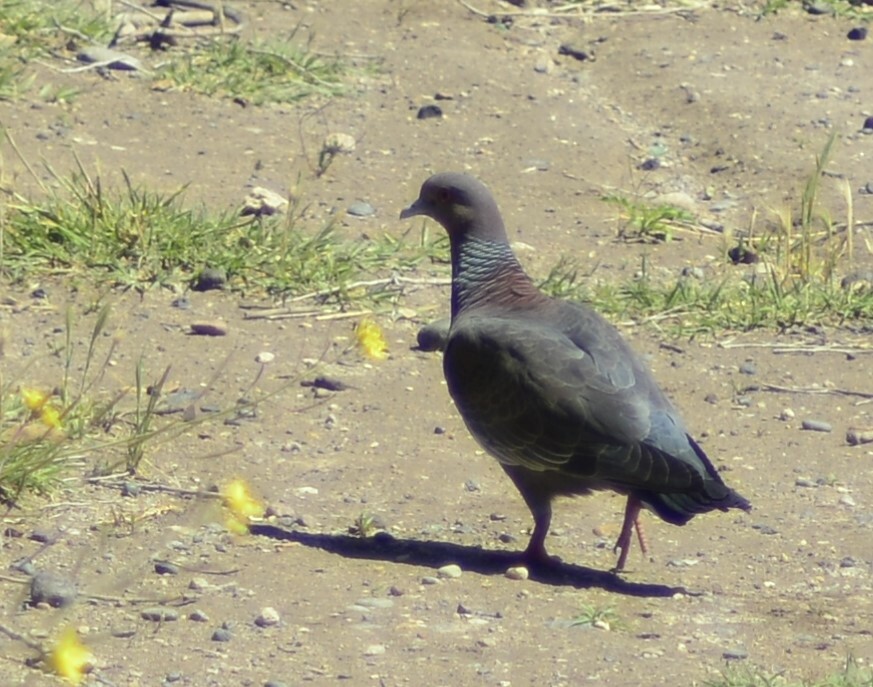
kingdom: Animalia
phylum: Chordata
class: Aves
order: Columbiformes
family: Columbidae
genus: Patagioenas
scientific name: Patagioenas picazuro
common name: Picazuro pigeon
